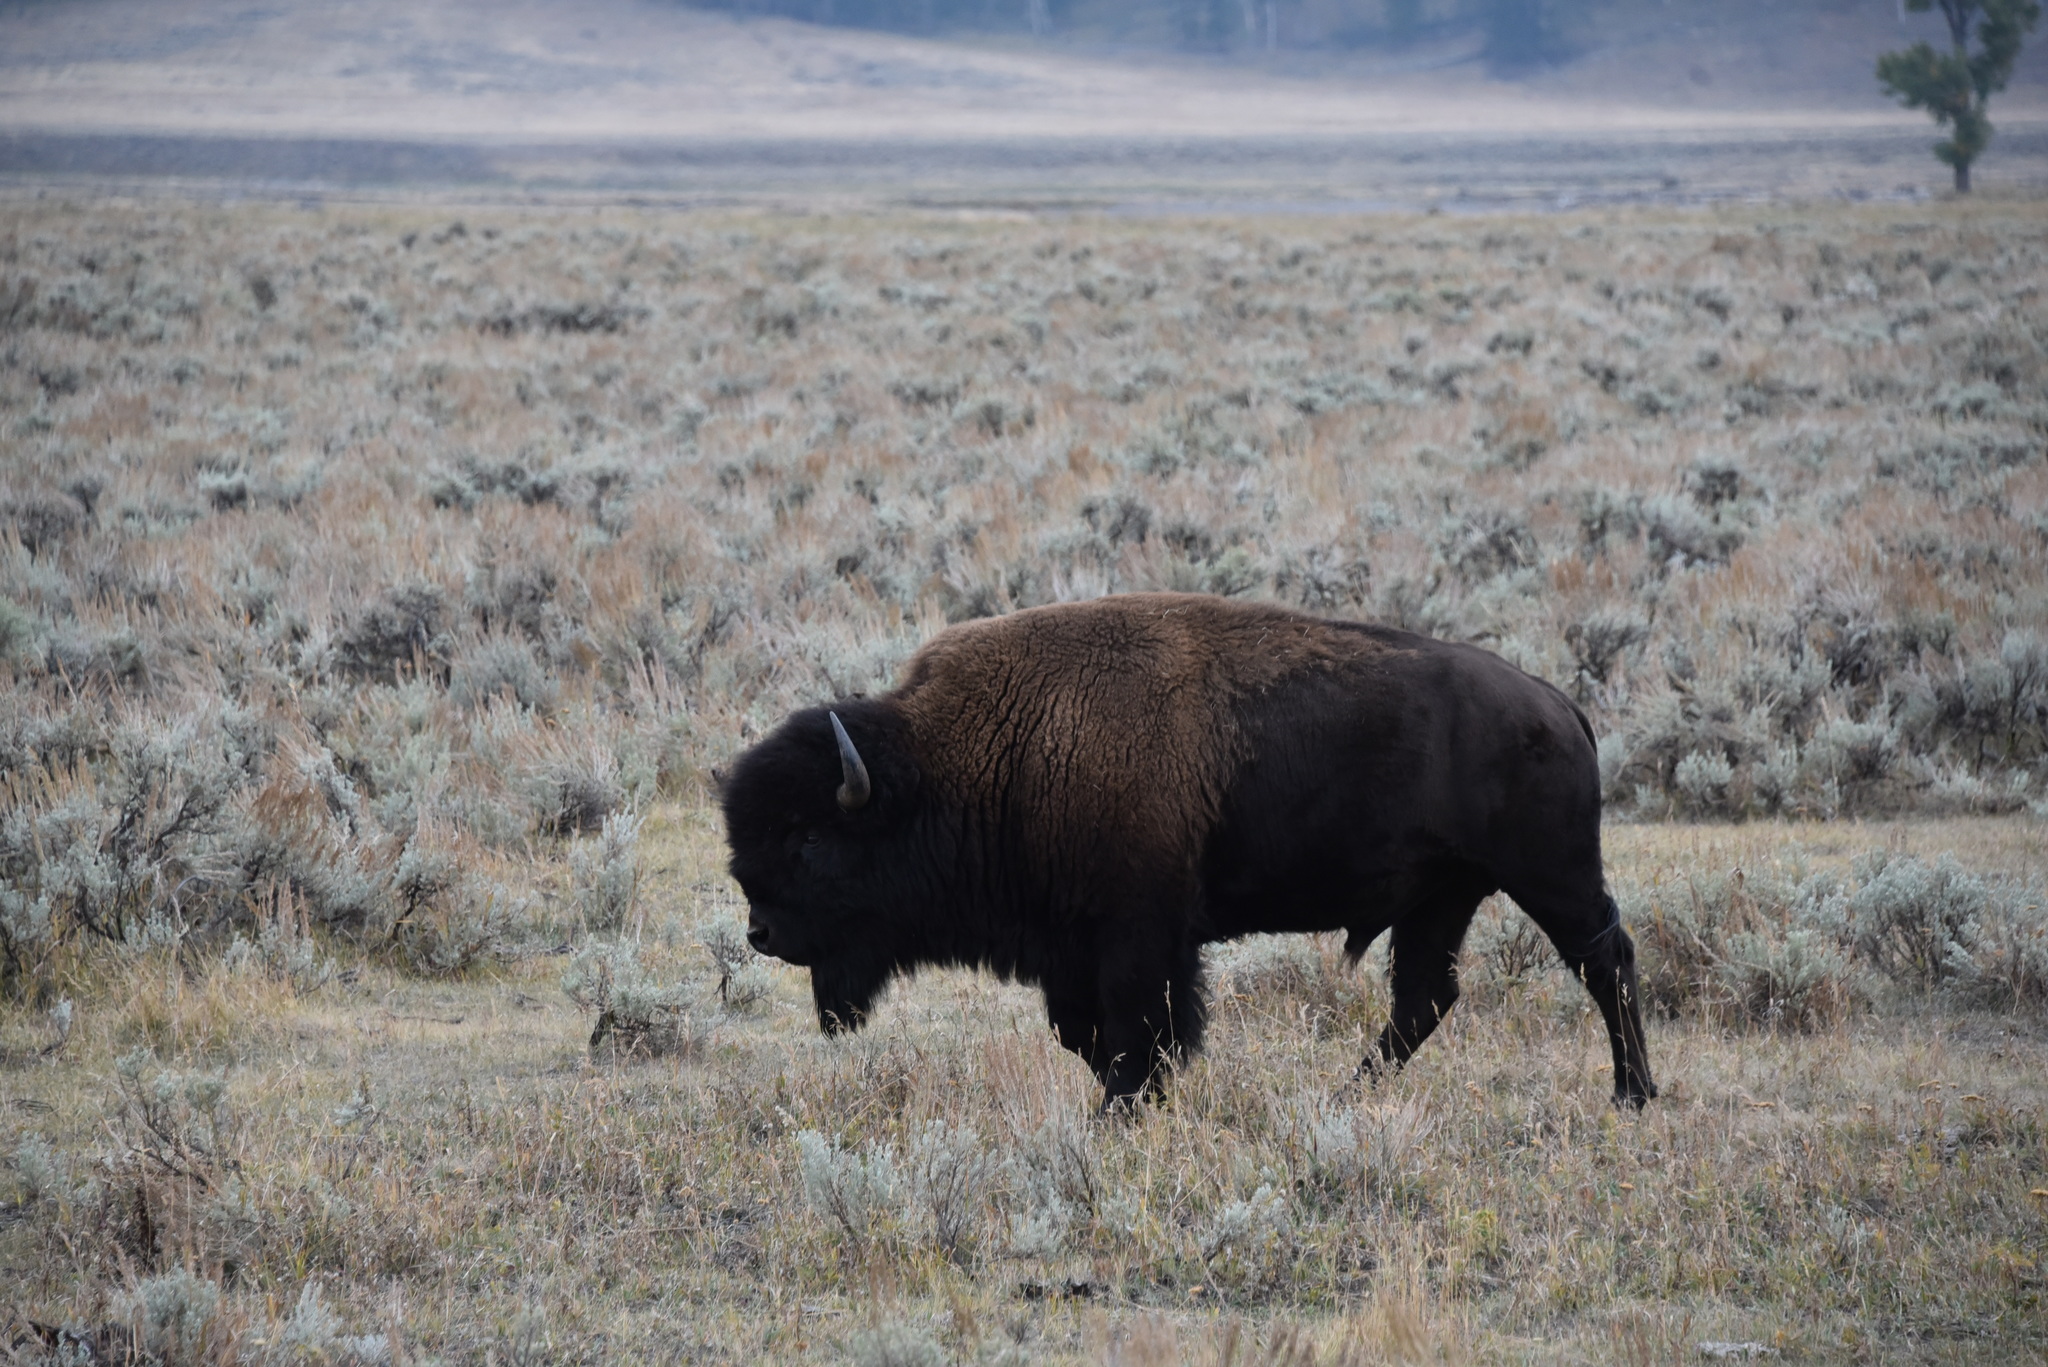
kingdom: Animalia
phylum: Chordata
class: Mammalia
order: Artiodactyla
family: Bovidae
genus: Bison
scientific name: Bison bison
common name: American bison
